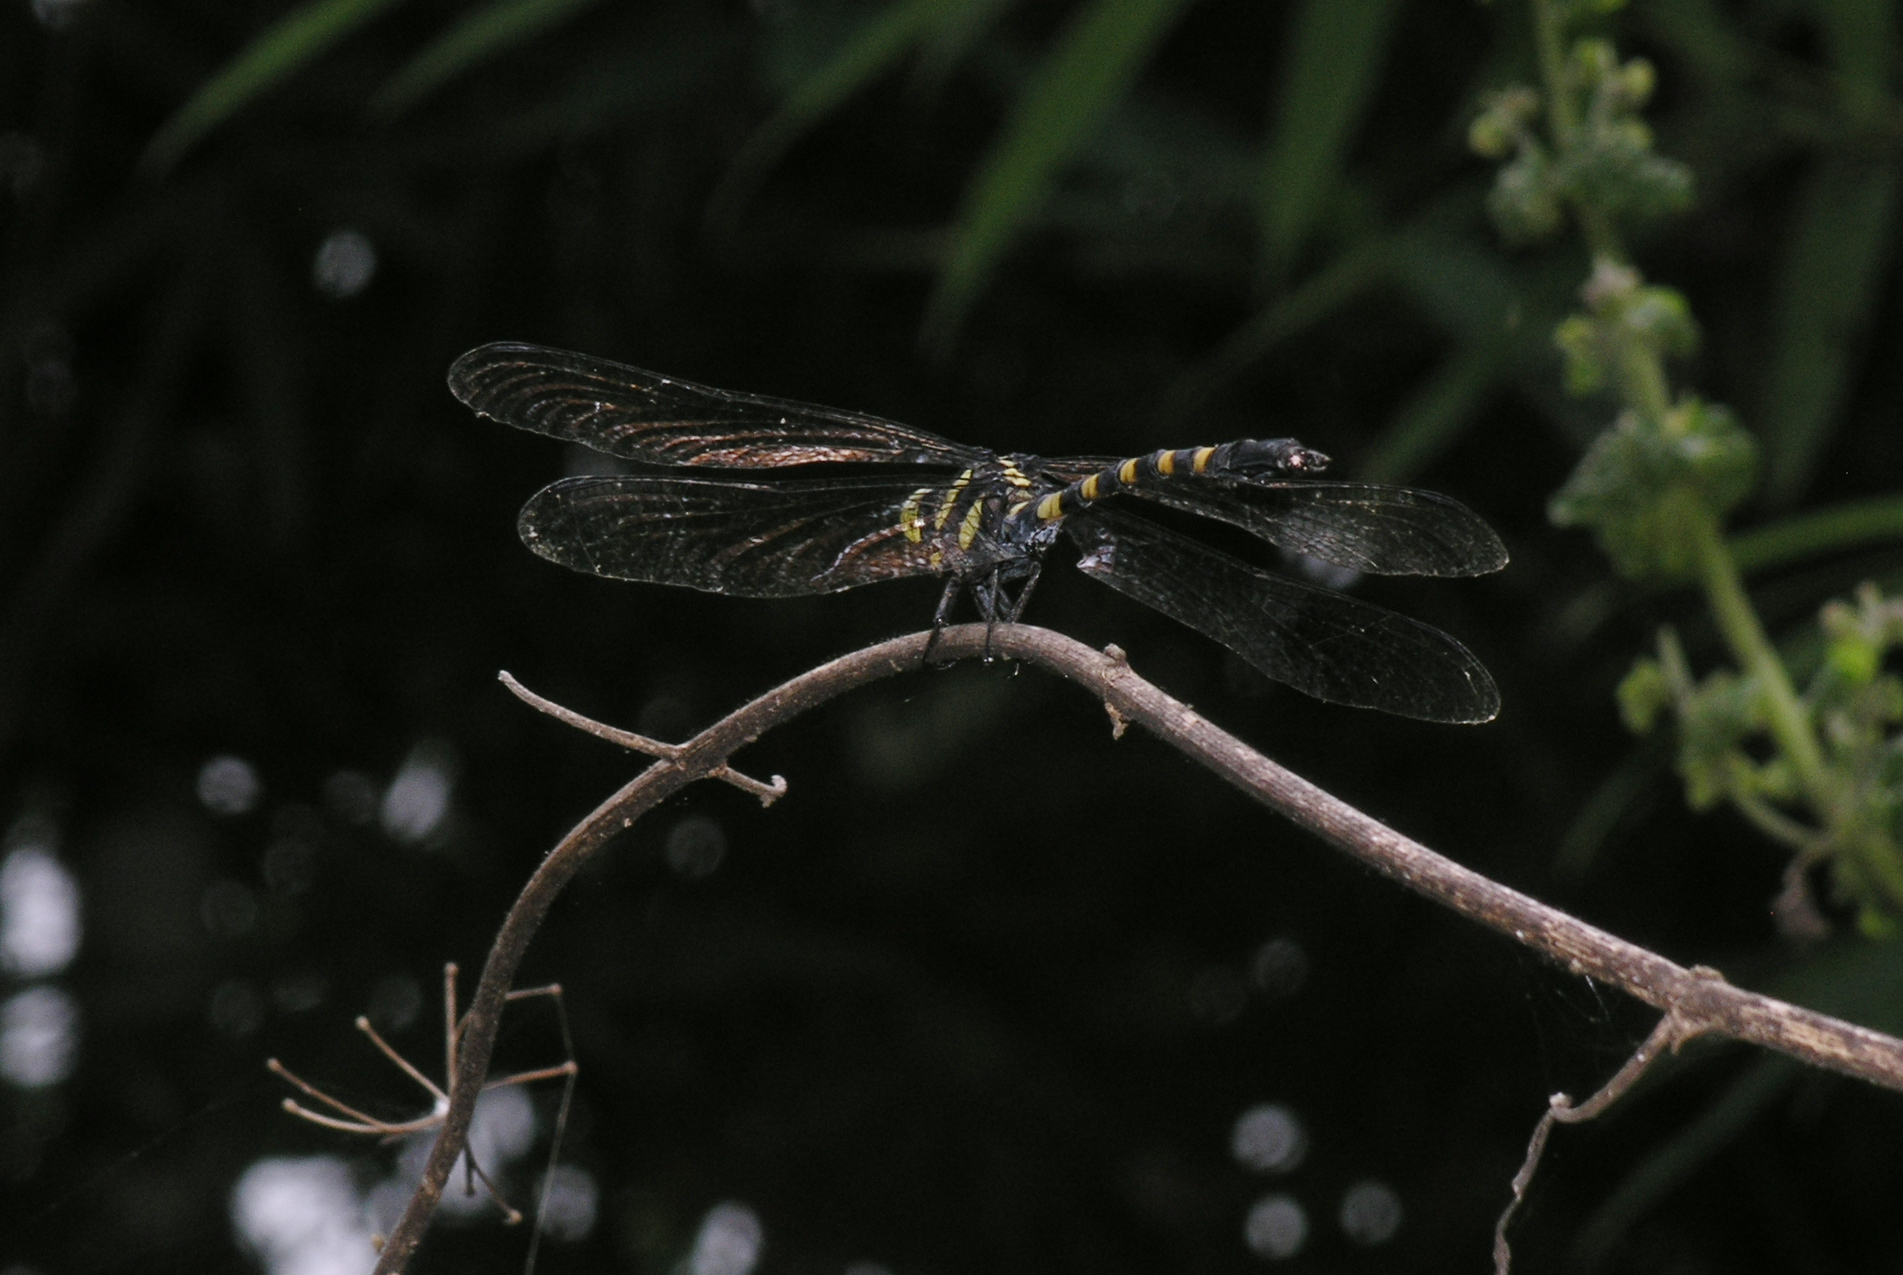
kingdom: Animalia
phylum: Arthropoda
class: Insecta
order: Odonata
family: Gomphidae
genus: Macrogomphus
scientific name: Macrogomphus kerri
